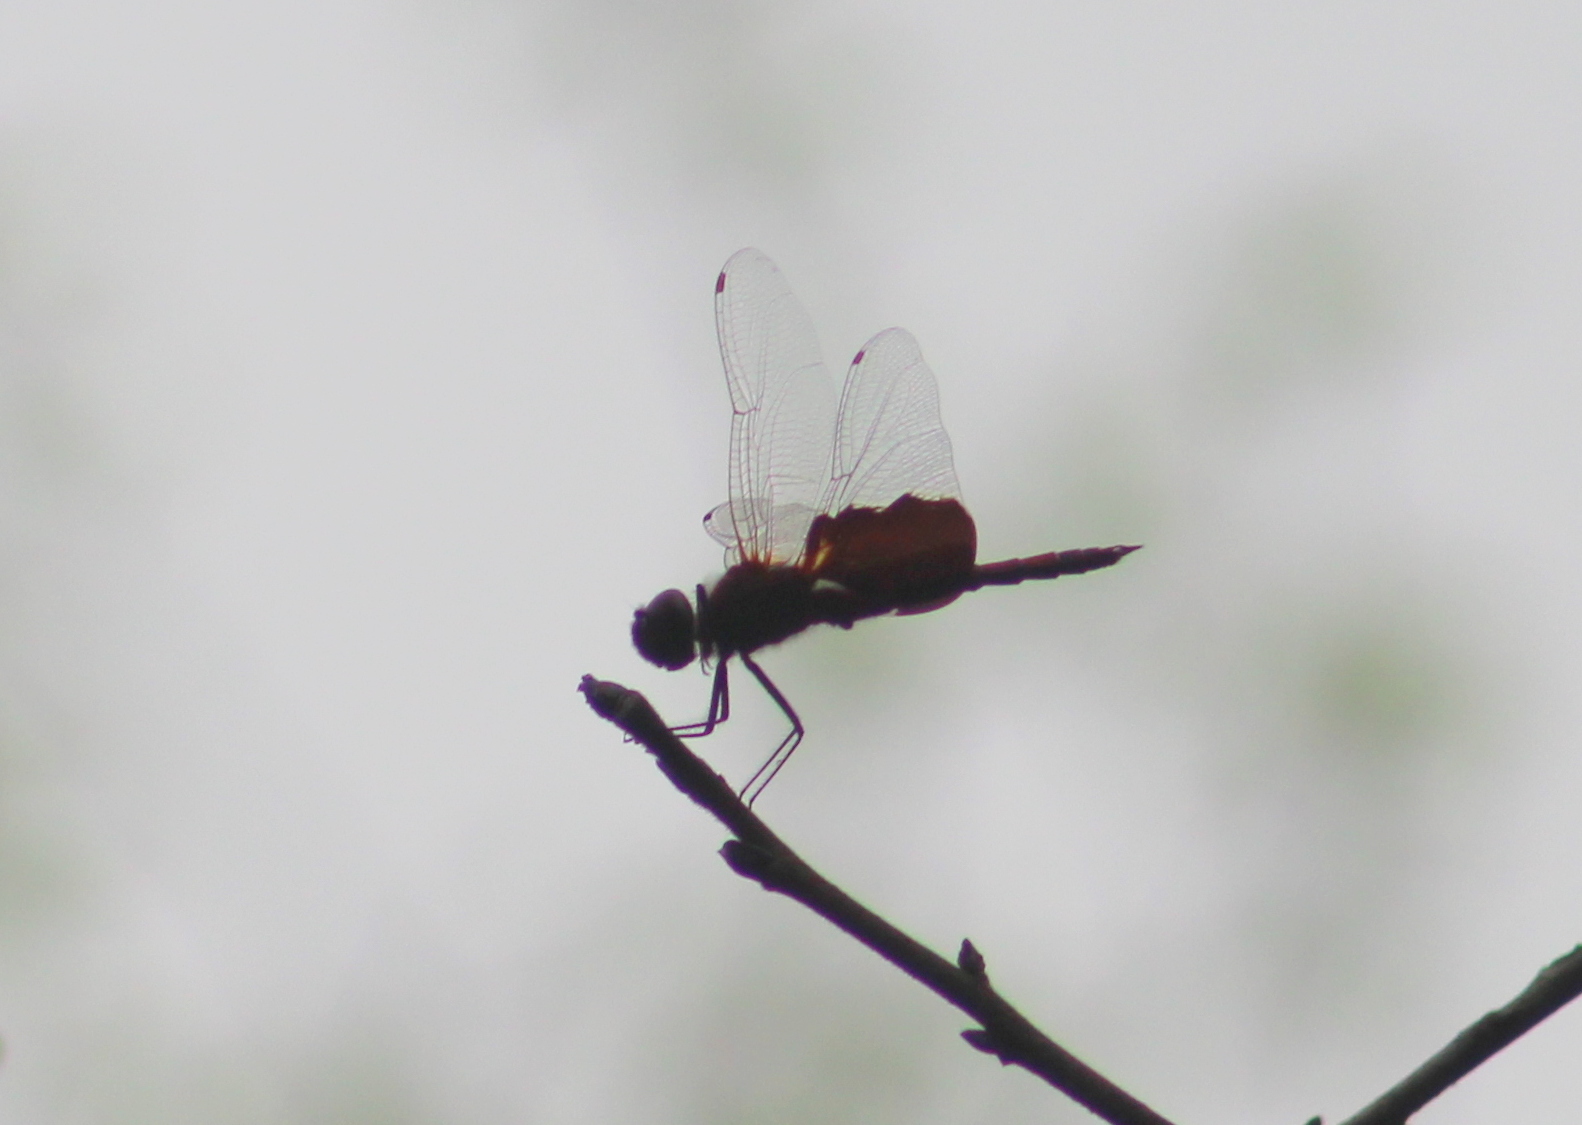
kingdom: Animalia
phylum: Arthropoda
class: Insecta
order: Odonata
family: Libellulidae
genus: Tramea
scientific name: Tramea carolina
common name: Carolina saddlebags
